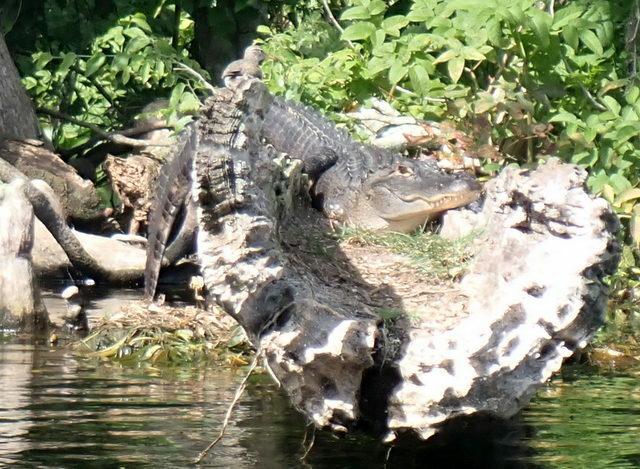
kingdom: Animalia
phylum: Chordata
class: Crocodylia
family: Alligatoridae
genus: Alligator
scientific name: Alligator mississippiensis
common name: American alligator
